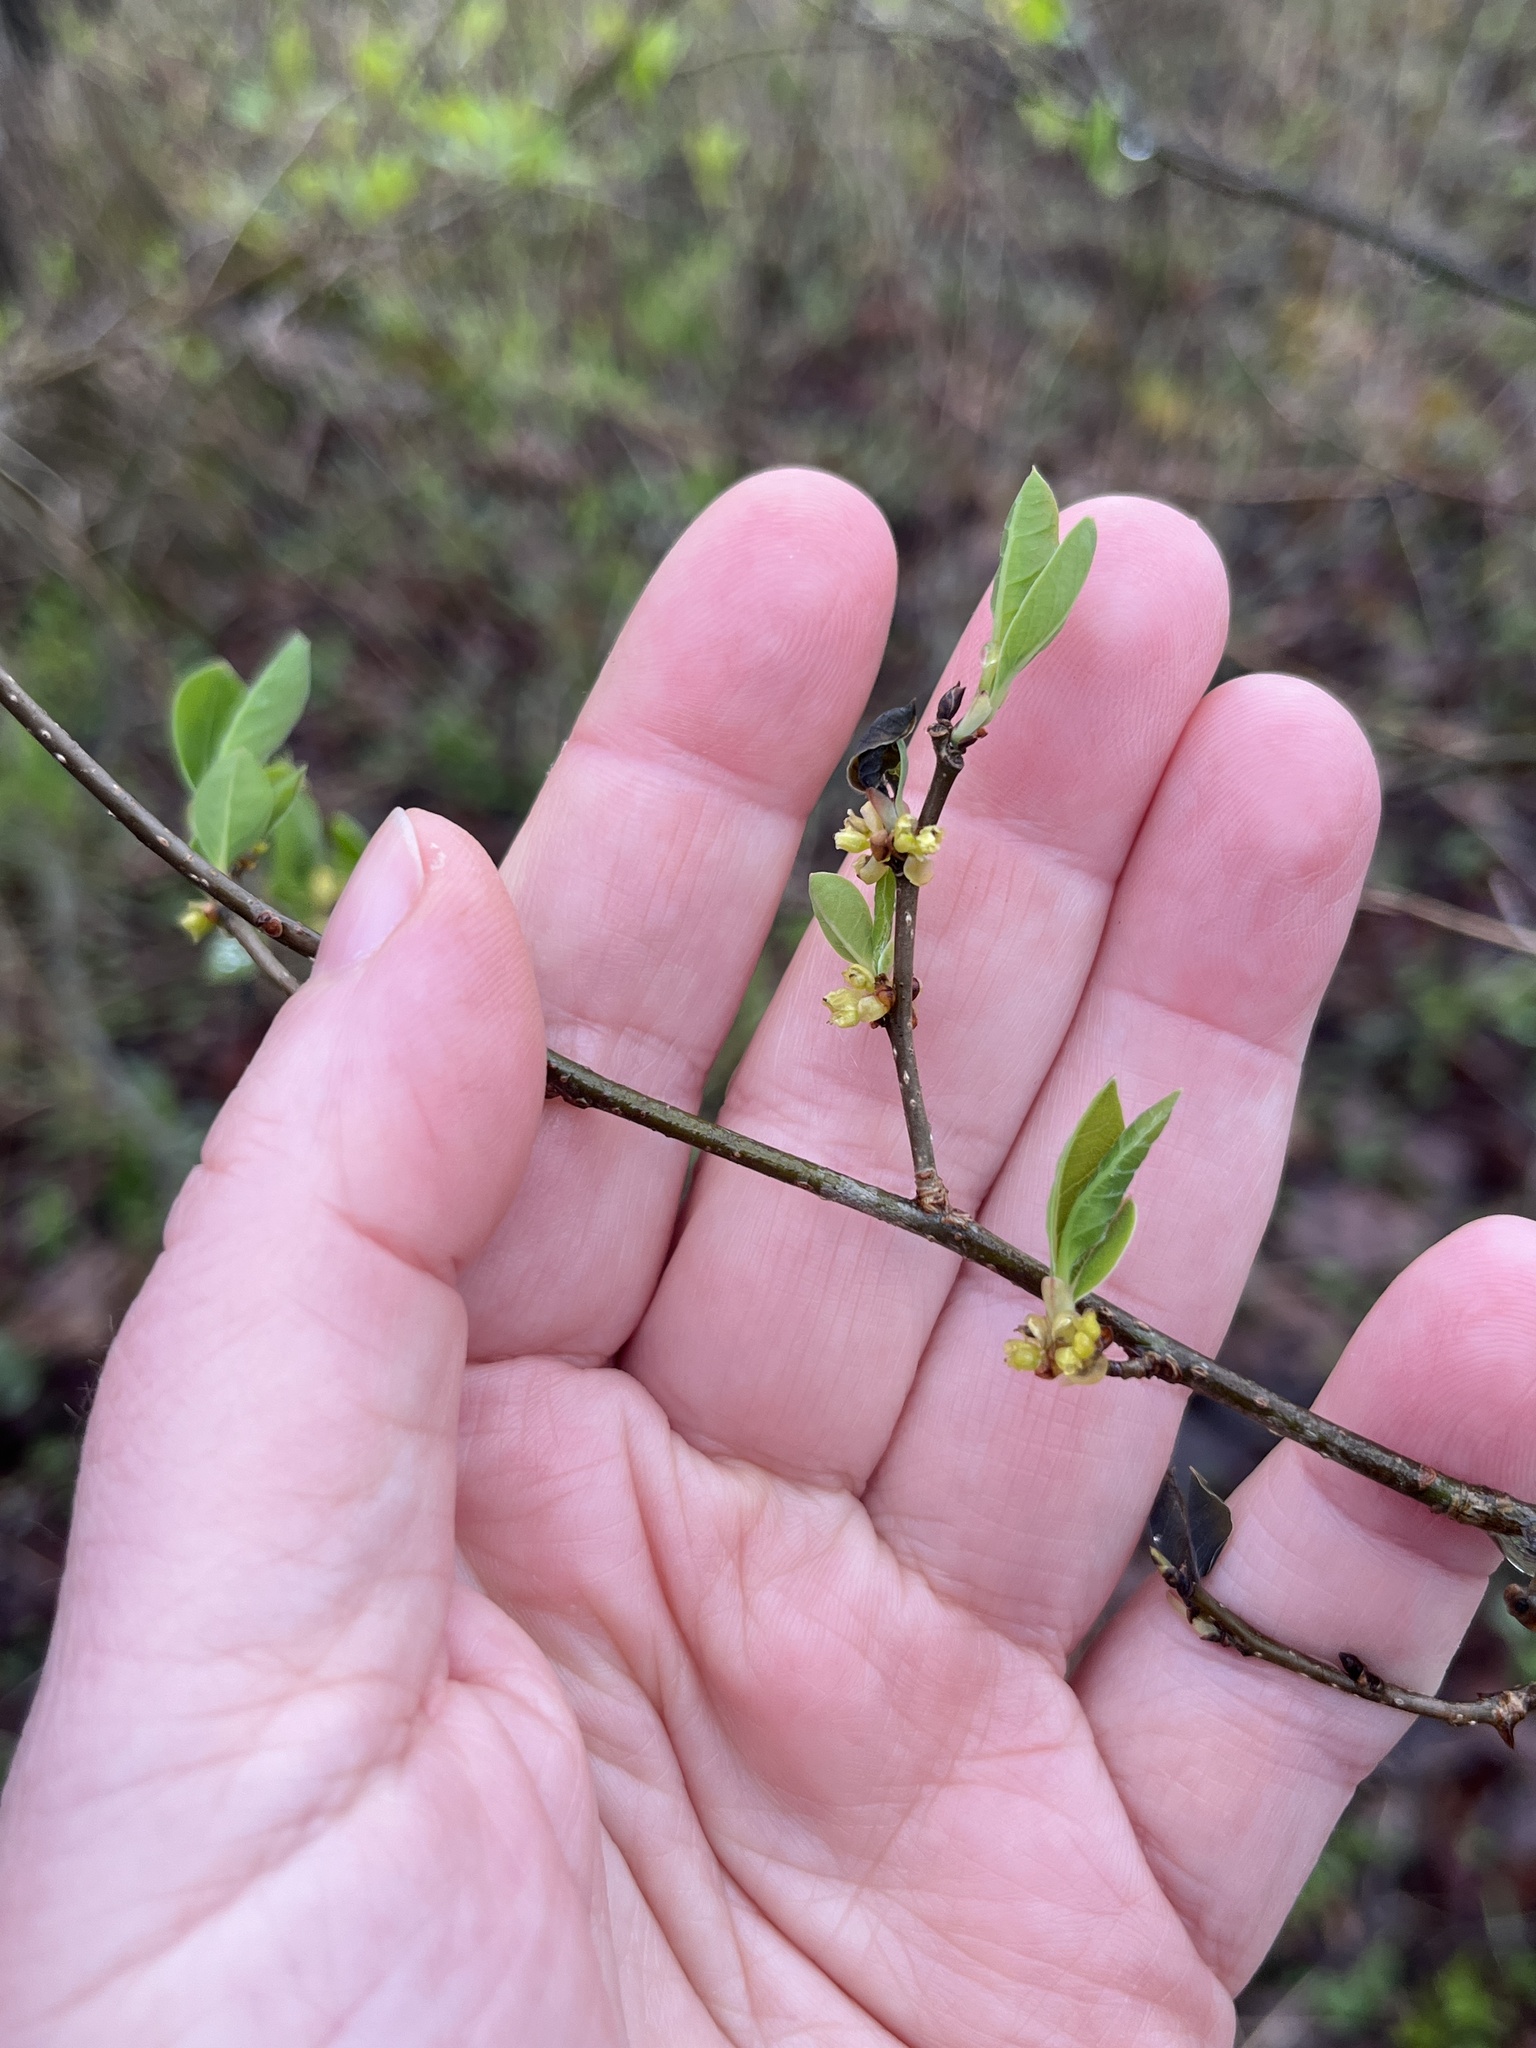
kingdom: Plantae
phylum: Tracheophyta
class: Magnoliopsida
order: Laurales
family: Lauraceae
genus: Lindera
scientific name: Lindera benzoin
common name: Spicebush
